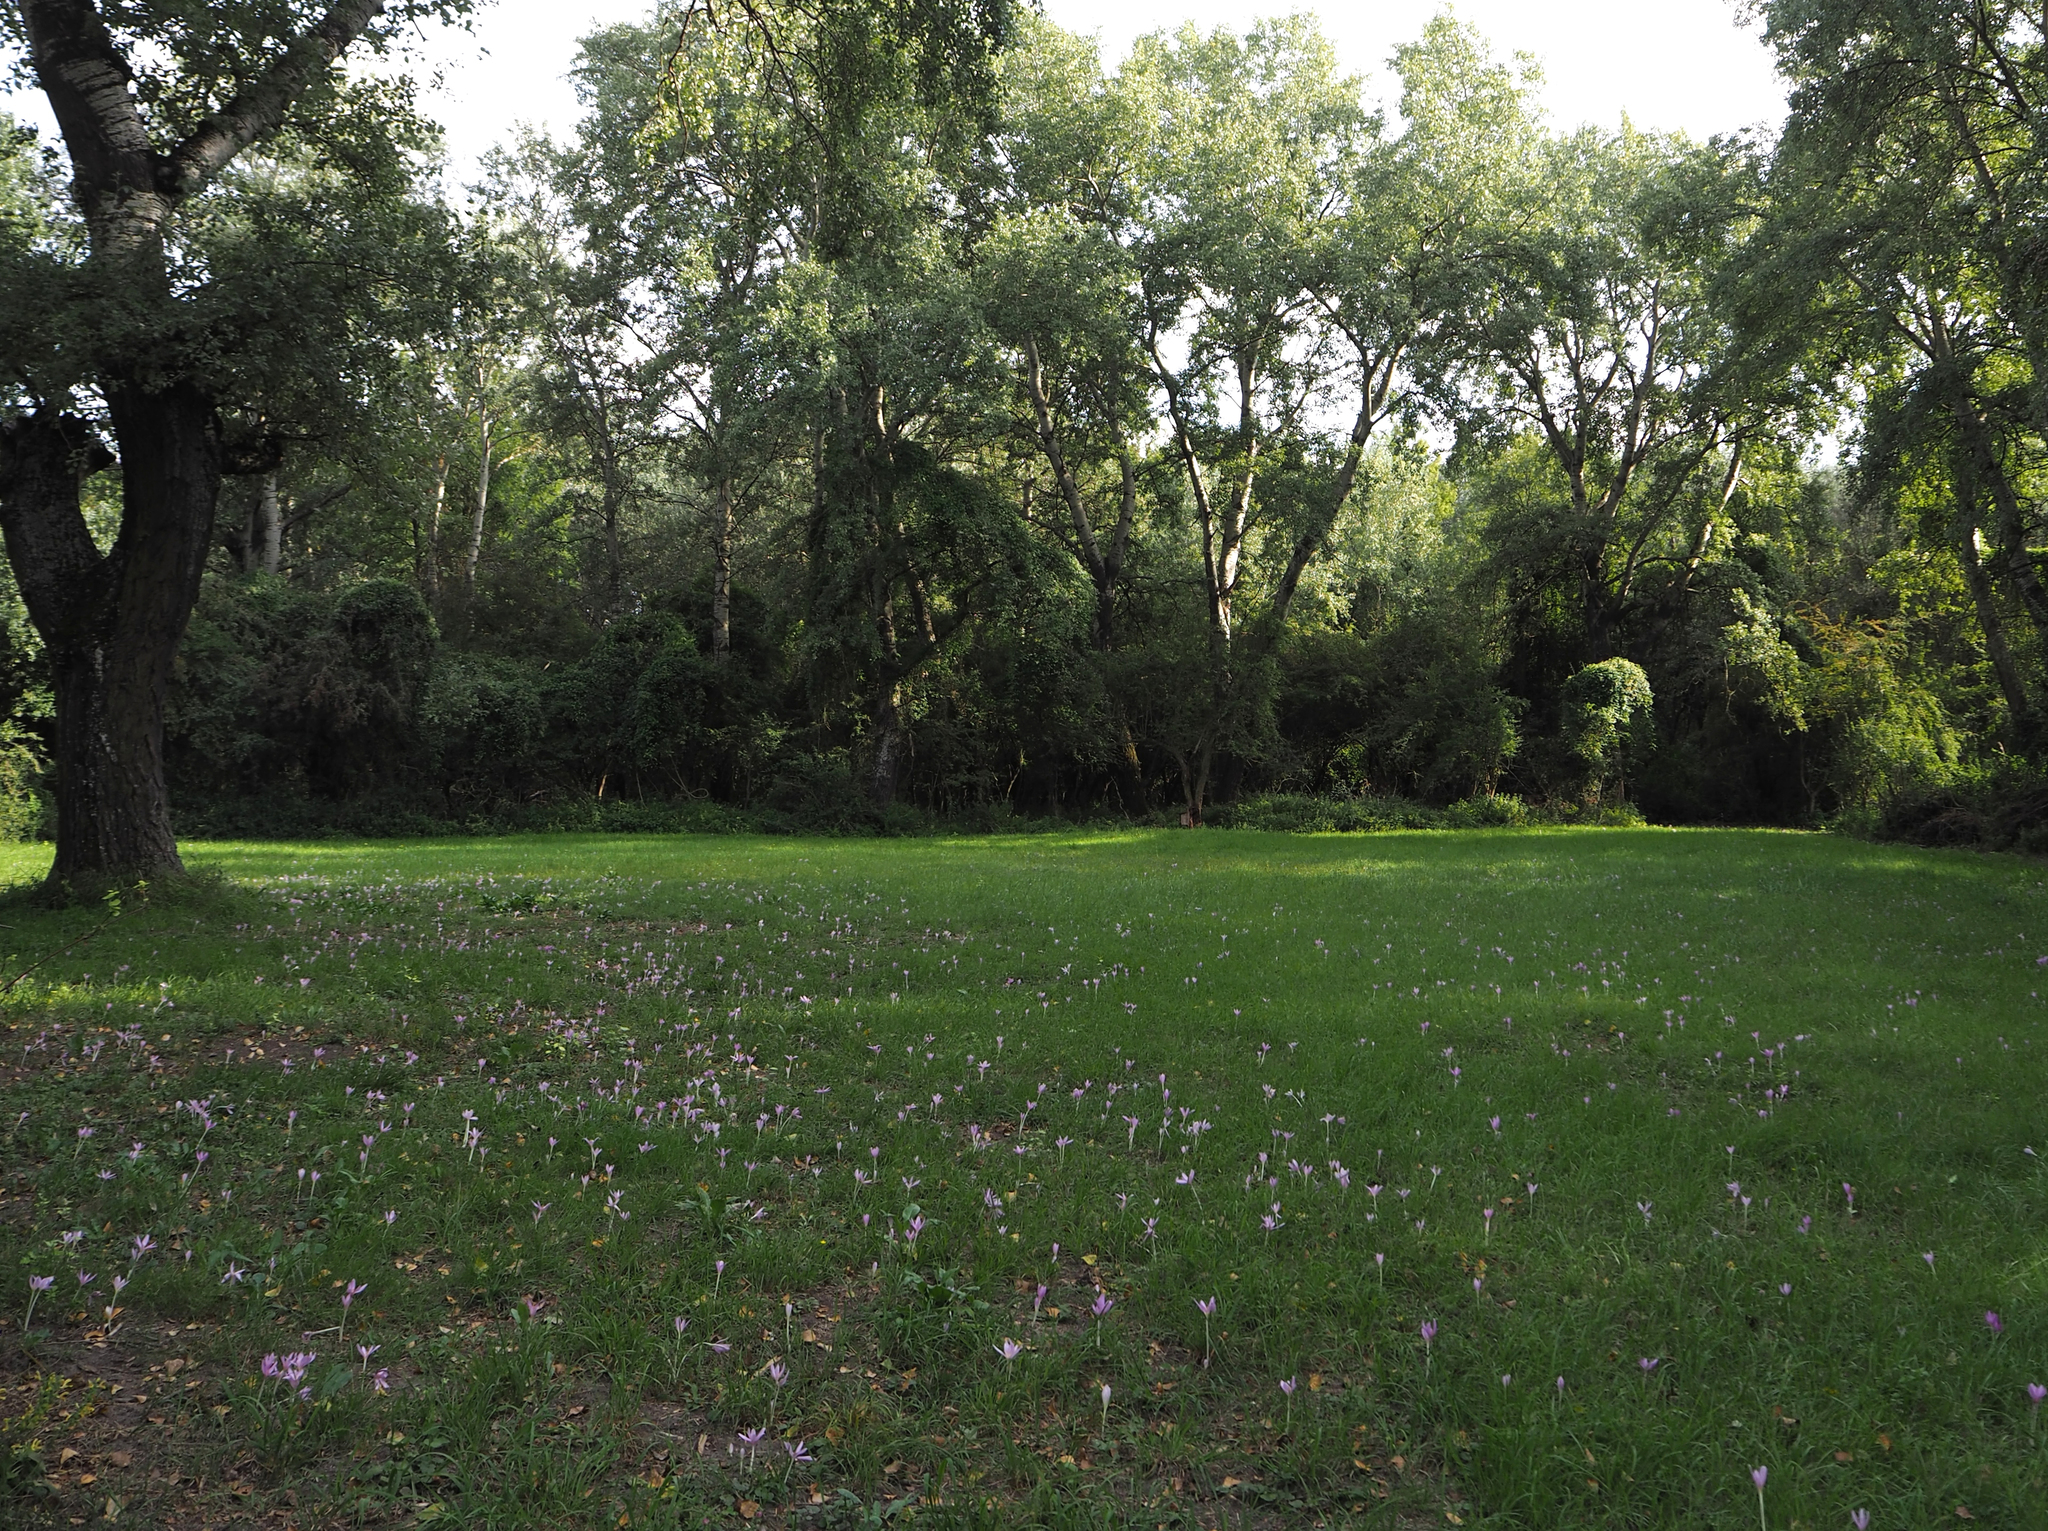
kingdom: Plantae
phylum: Tracheophyta
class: Liliopsida
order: Liliales
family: Colchicaceae
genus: Colchicum
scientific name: Colchicum autumnale
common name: Autumn crocus
